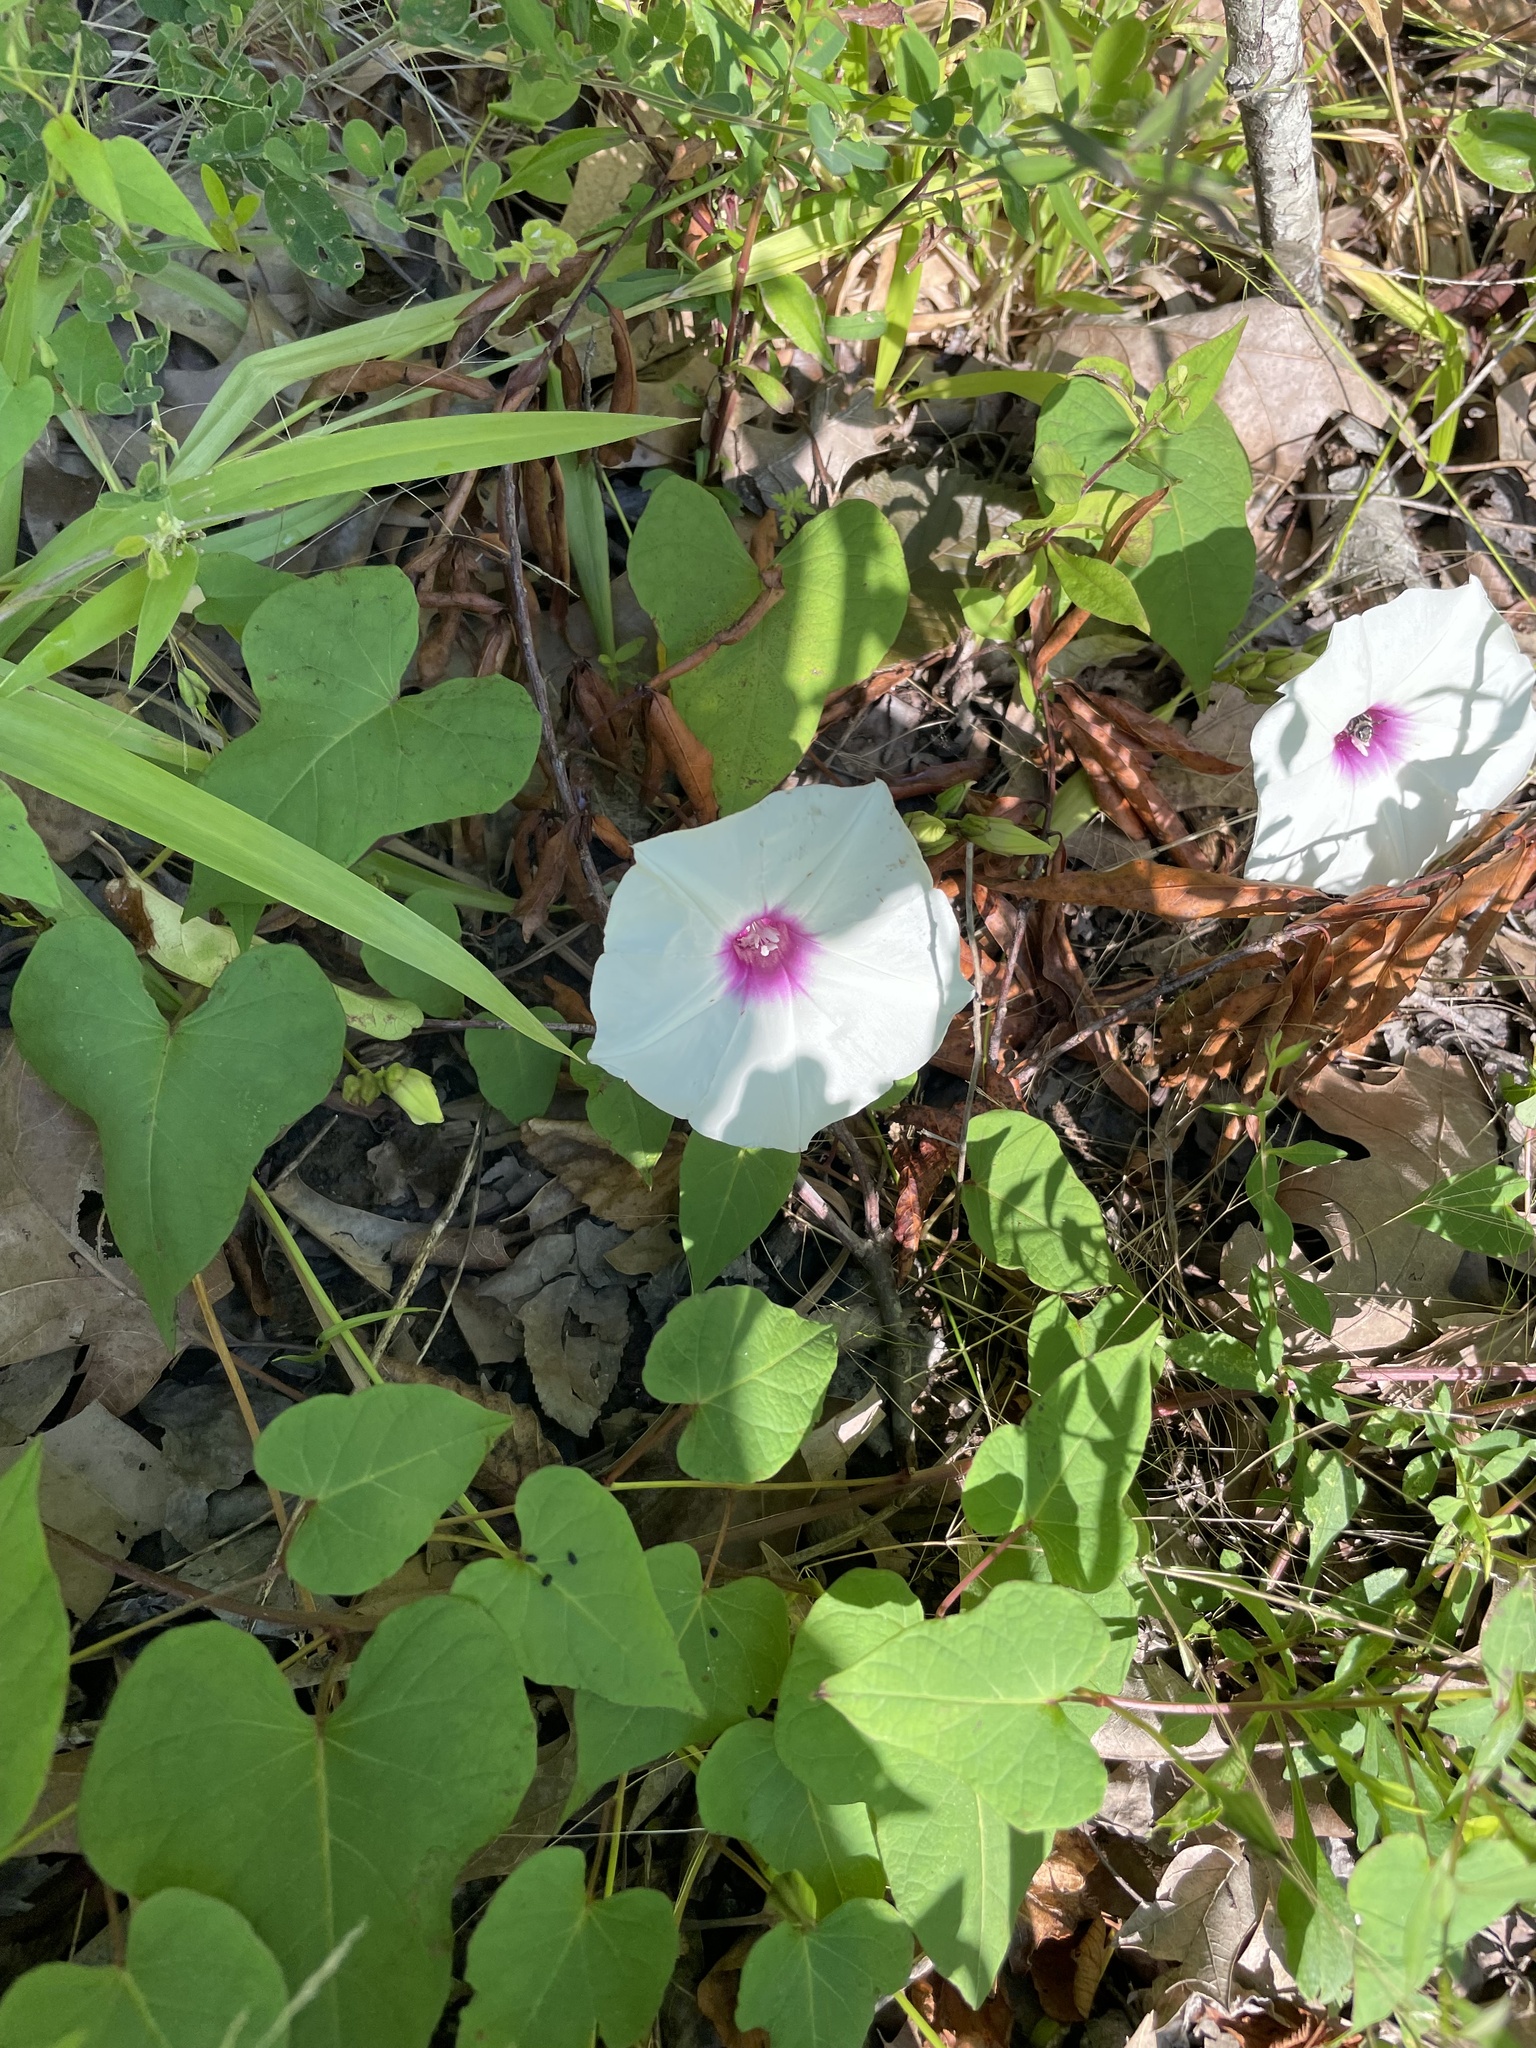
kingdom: Plantae
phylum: Tracheophyta
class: Magnoliopsida
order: Solanales
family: Convolvulaceae
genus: Ipomoea
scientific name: Ipomoea pandurata
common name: Man-of-the-earth
